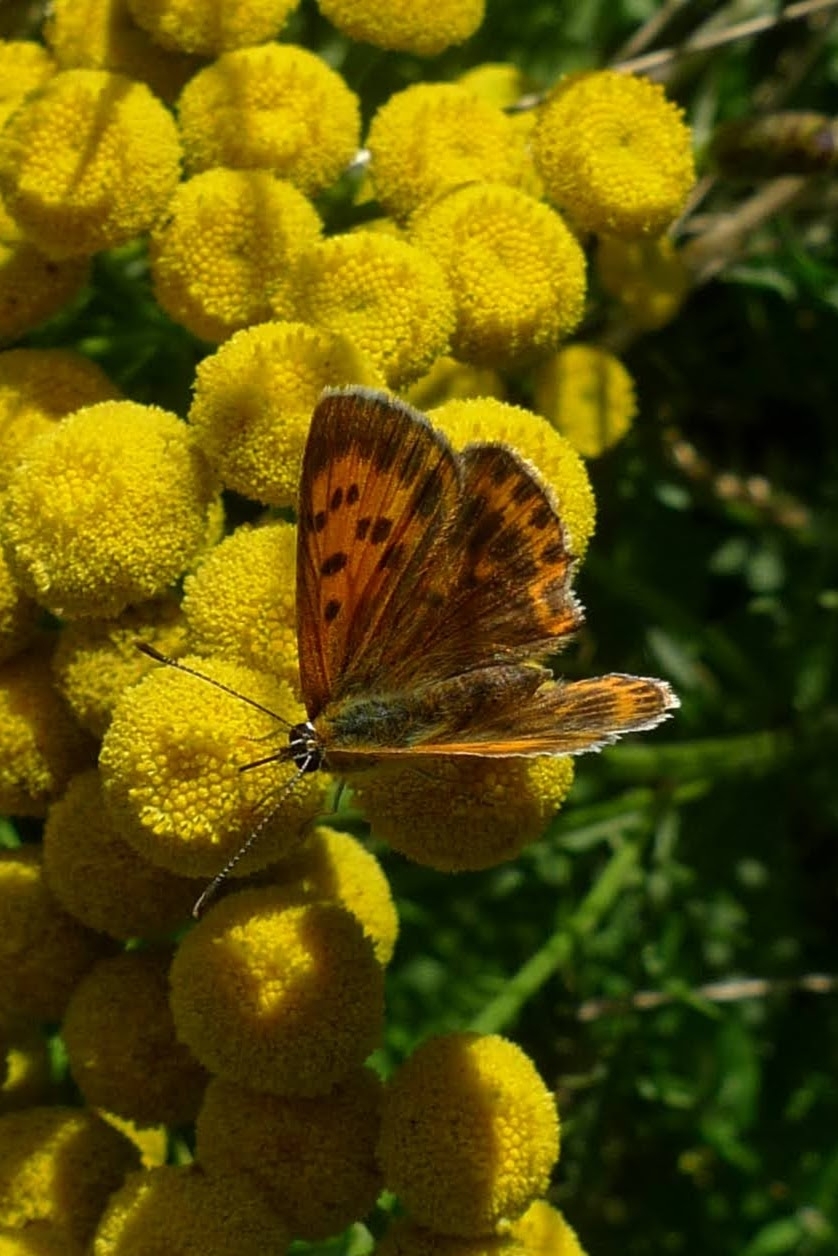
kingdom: Animalia
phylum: Arthropoda
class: Insecta
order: Lepidoptera
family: Lycaenidae
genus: Lycaena
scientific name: Lycaena virgaureae
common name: Scarce copper
